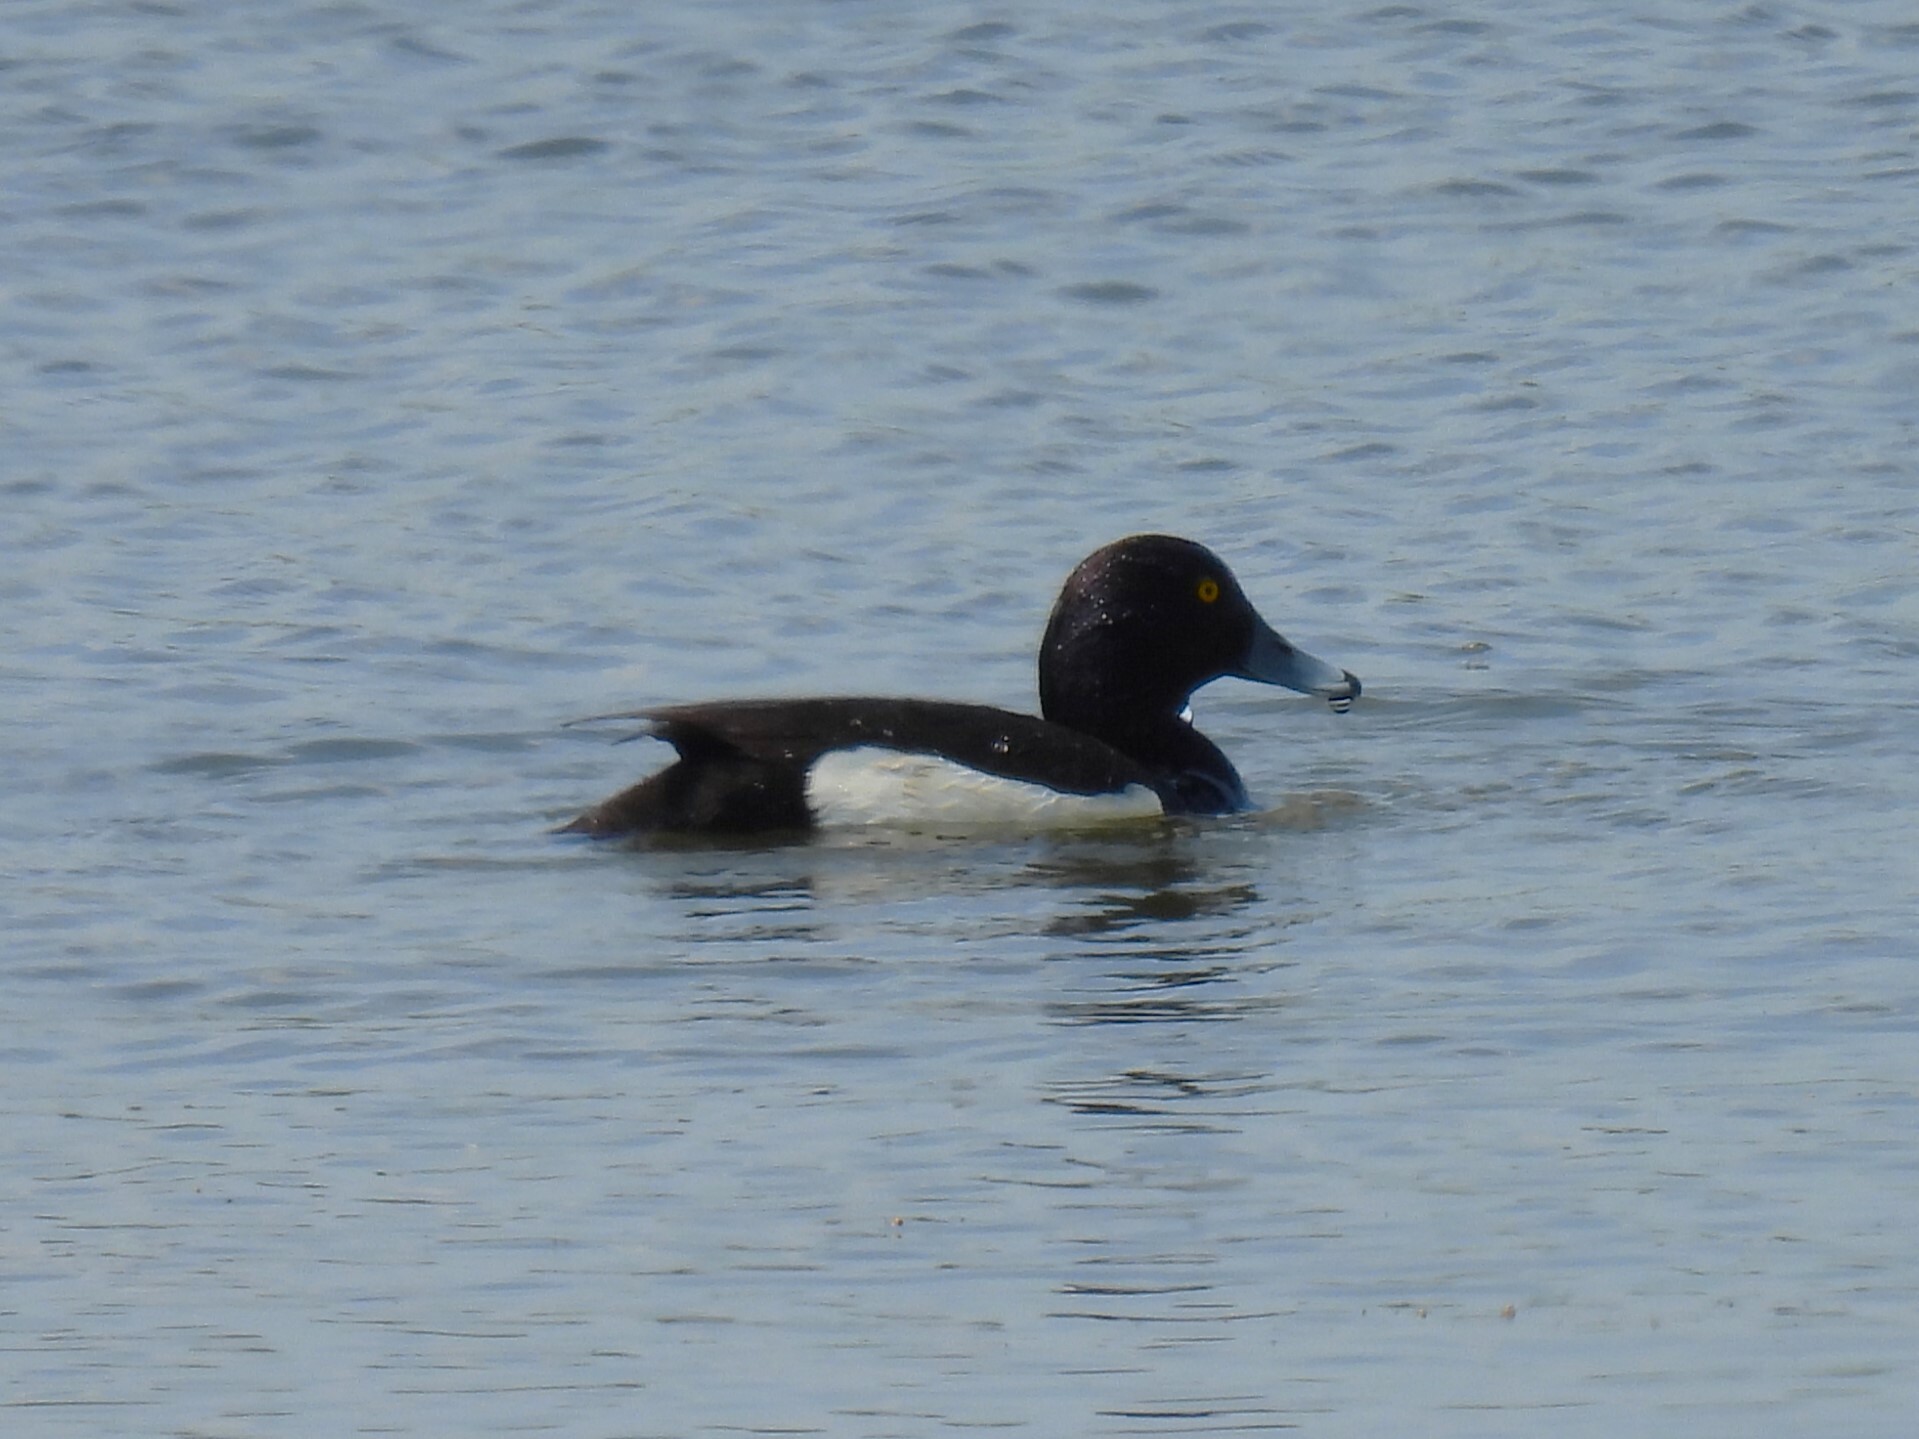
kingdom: Animalia
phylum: Chordata
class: Aves
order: Anseriformes
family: Anatidae
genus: Aythya
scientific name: Aythya fuligula
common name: Tufted duck
